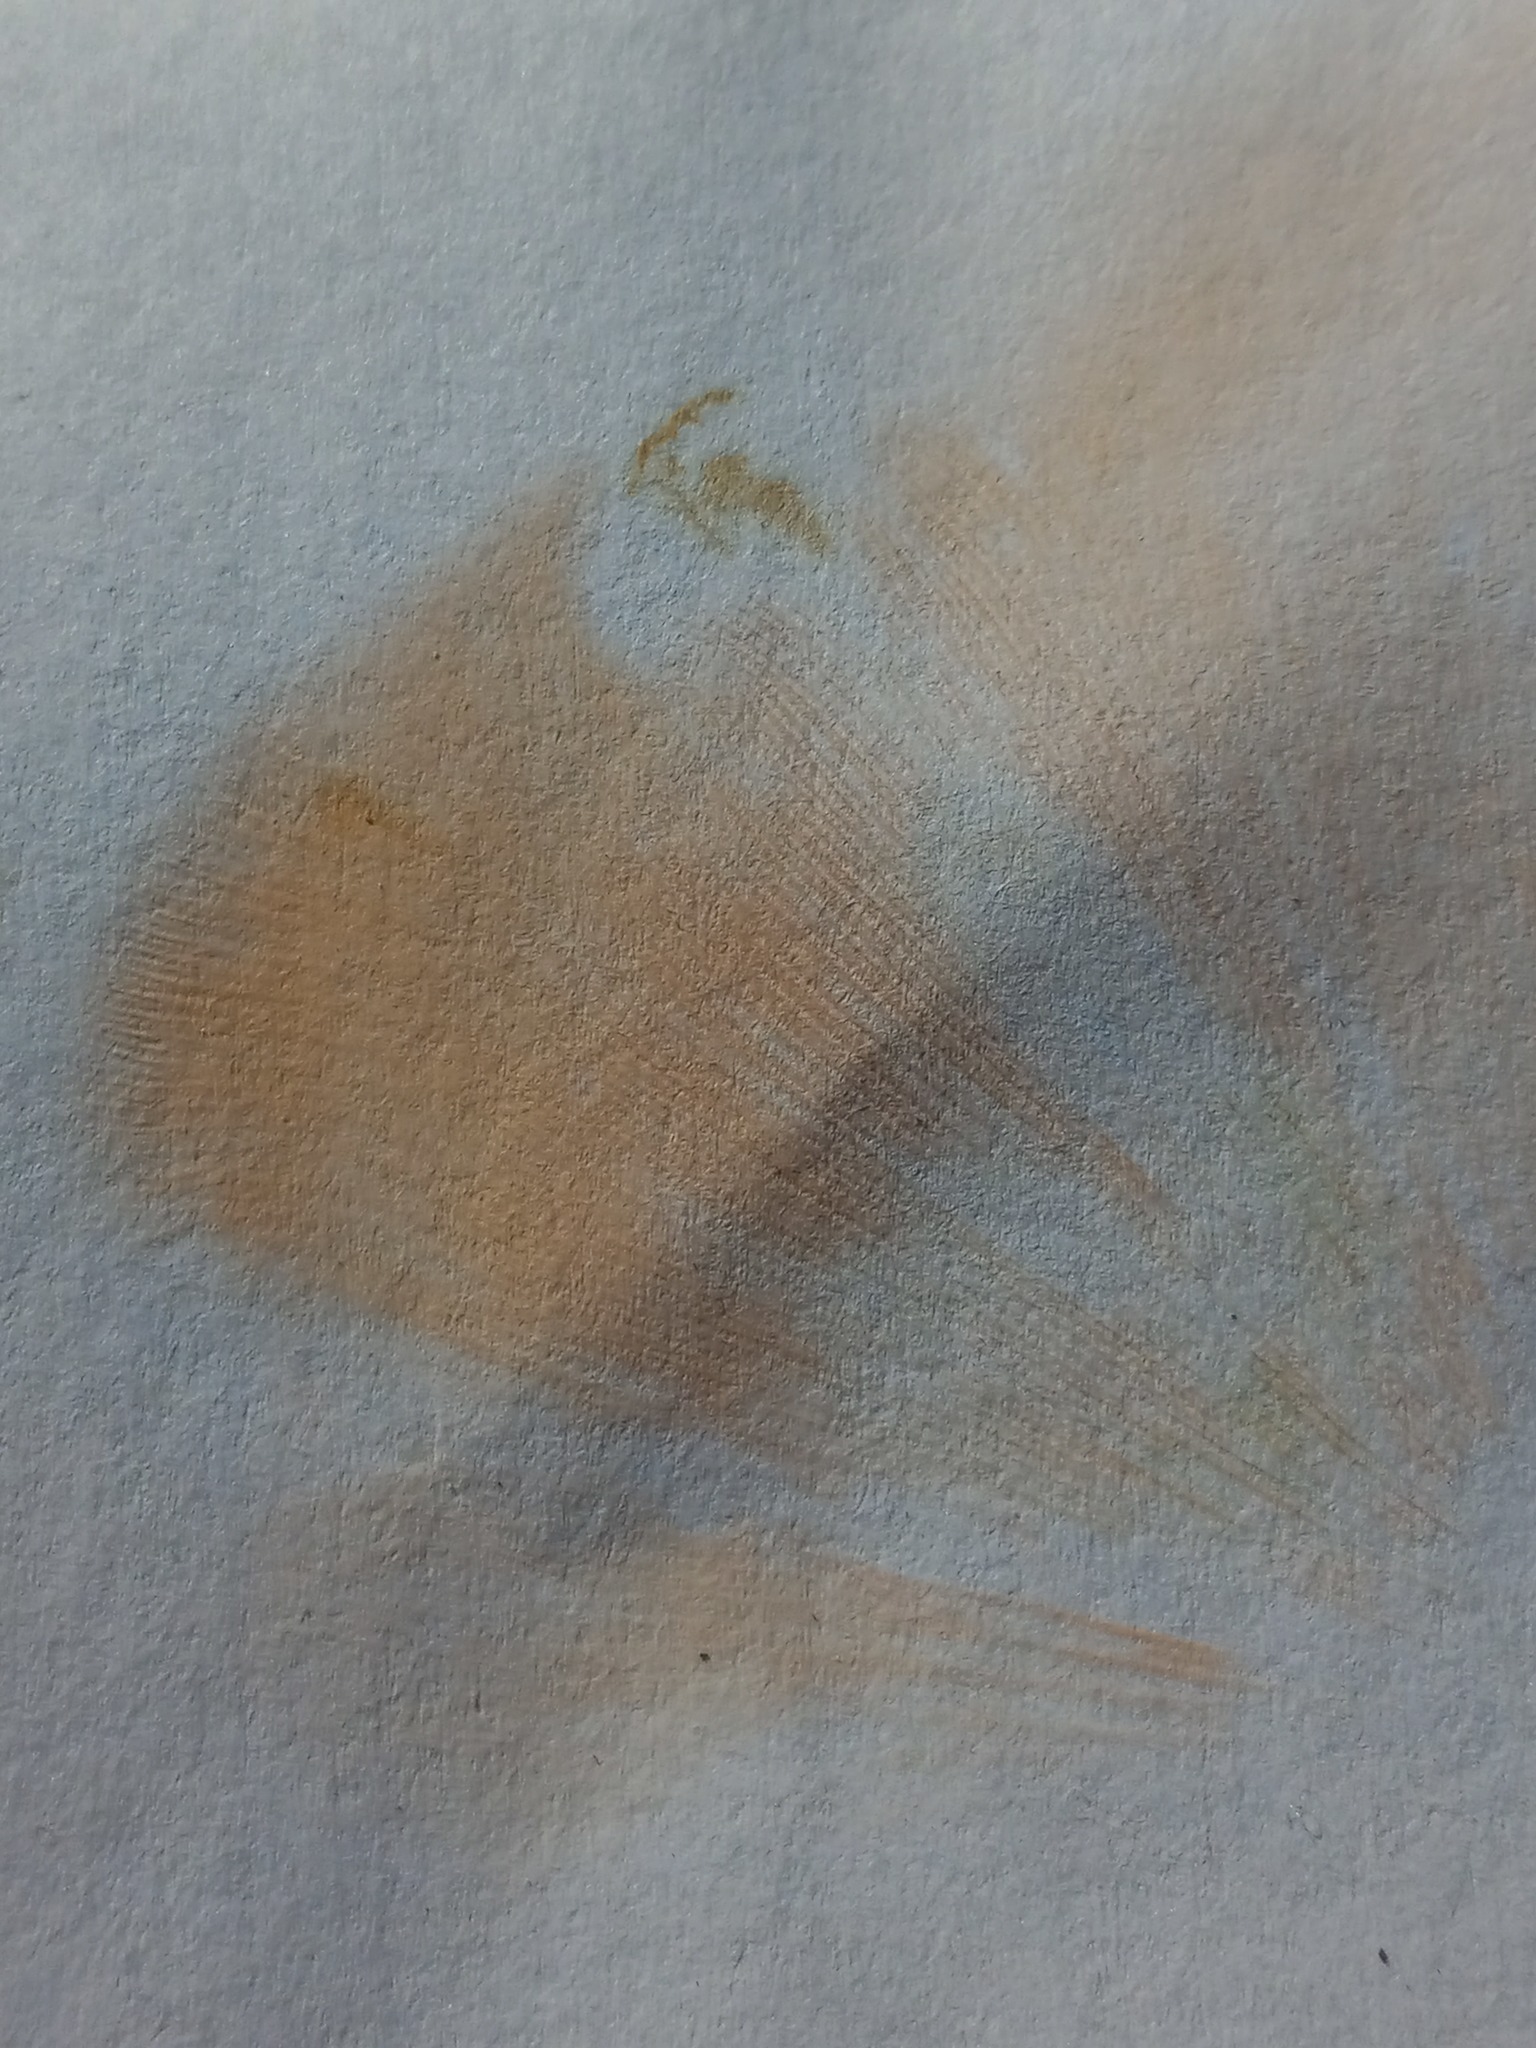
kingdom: Fungi
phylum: Basidiomycota
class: Agaricomycetes
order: Agaricales
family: Phyllotopsidaceae
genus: Phyllotopsis
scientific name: Phyllotopsis nidulans
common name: Orange mock oyster
